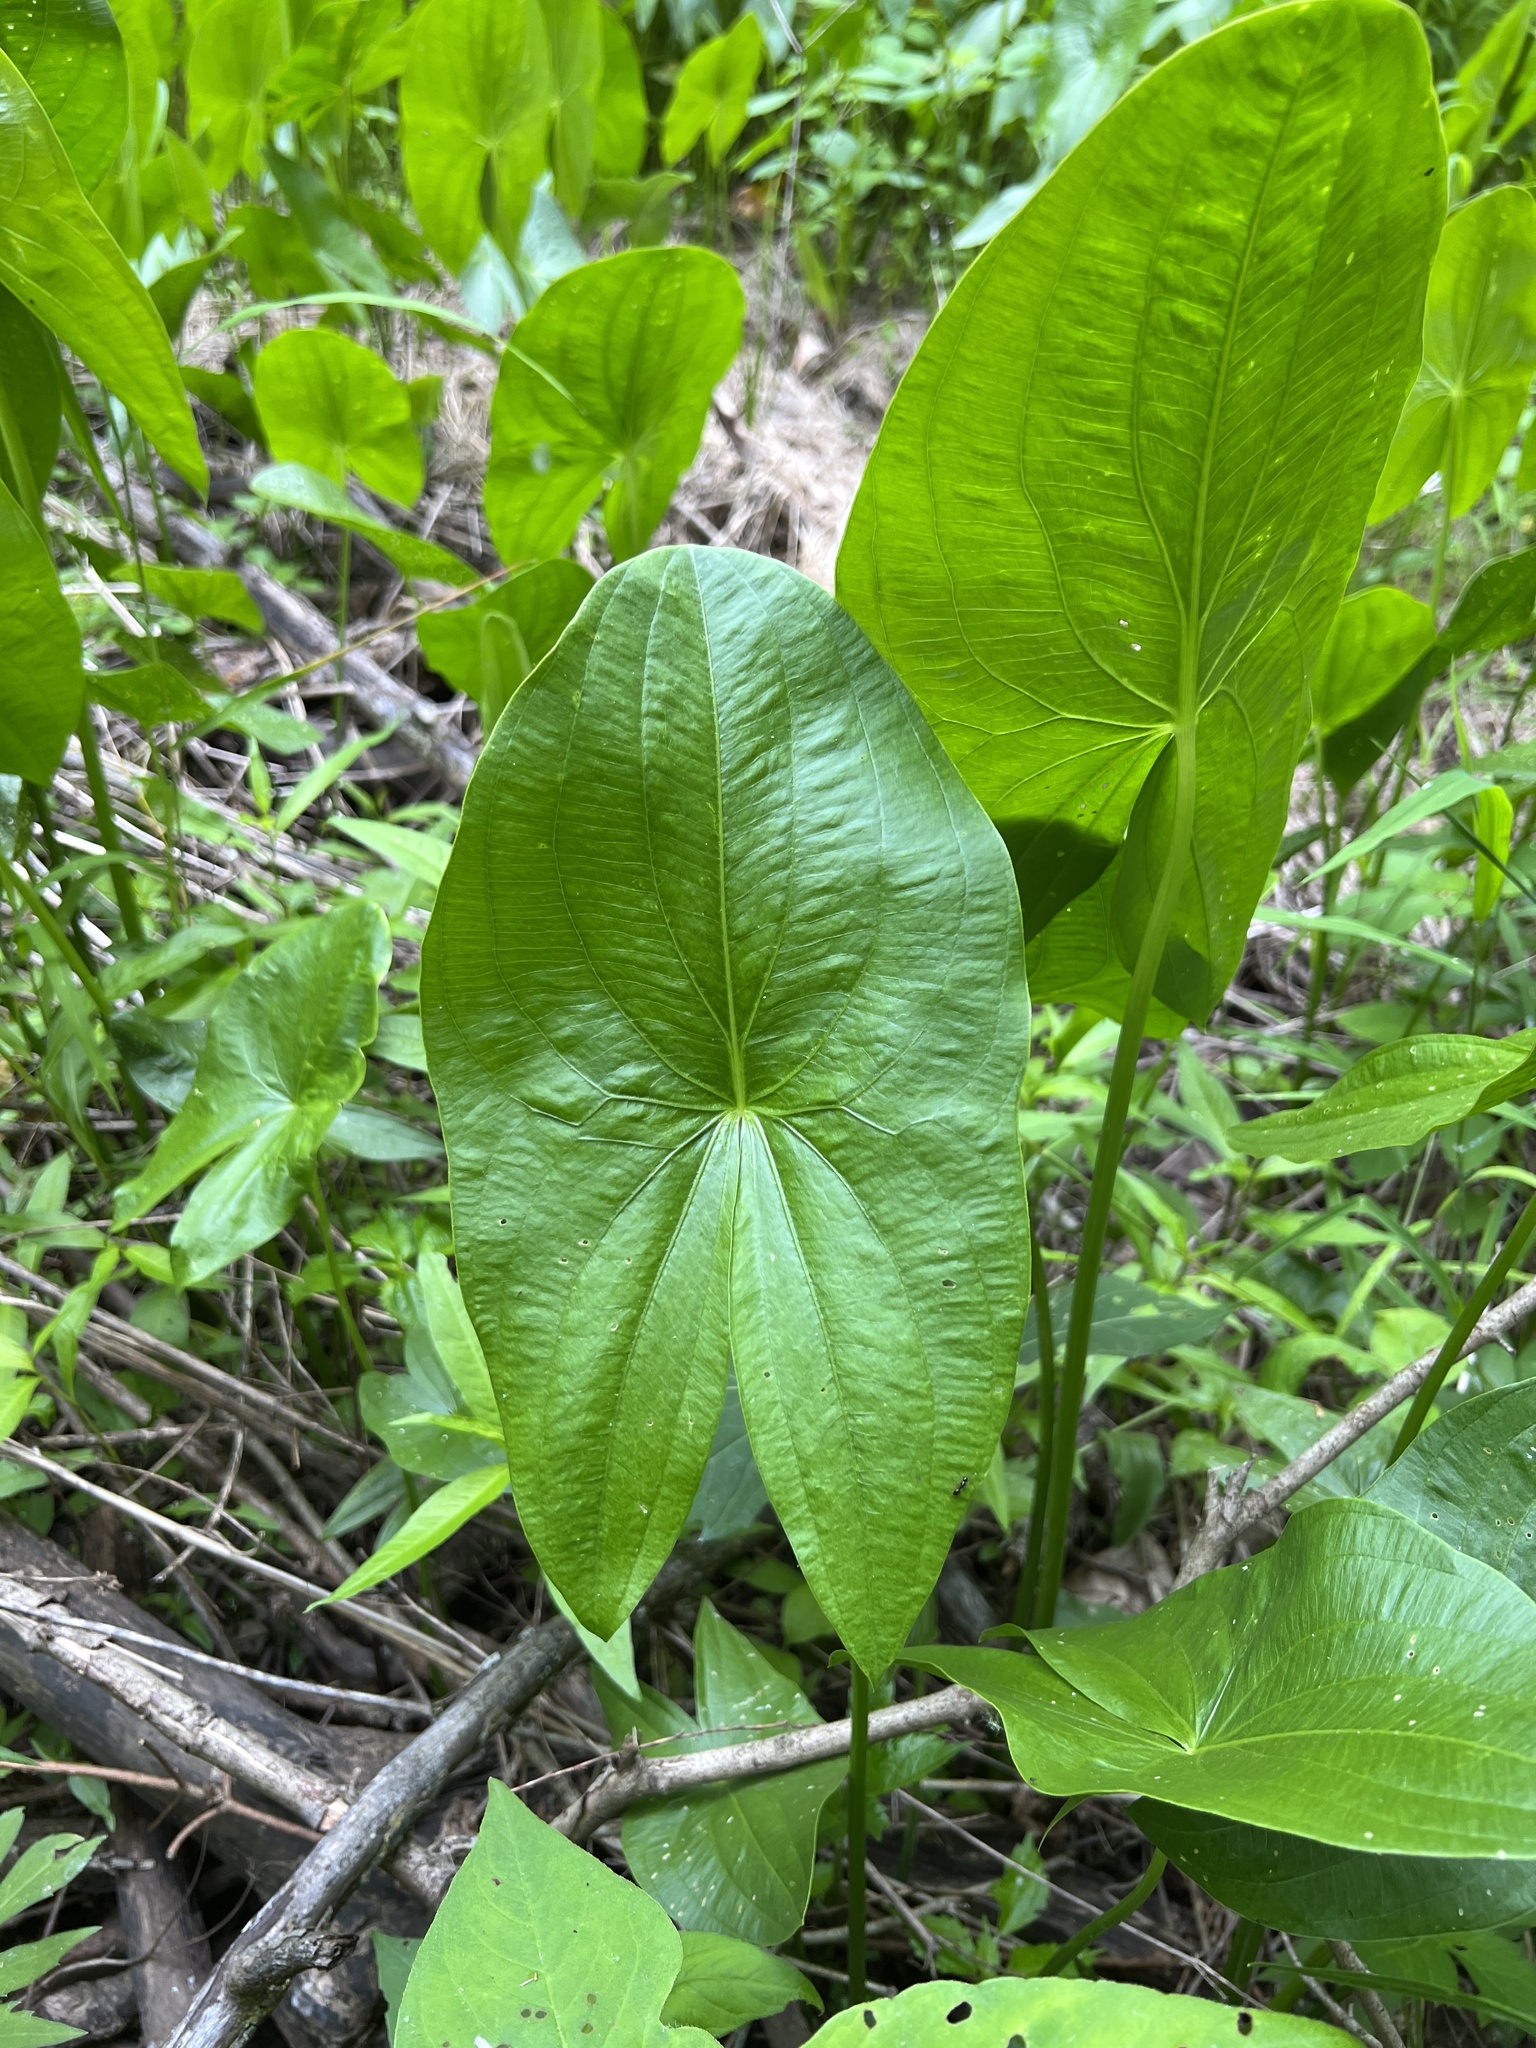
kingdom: Plantae
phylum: Tracheophyta
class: Liliopsida
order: Alismatales
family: Alismataceae
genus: Sagittaria
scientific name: Sagittaria
